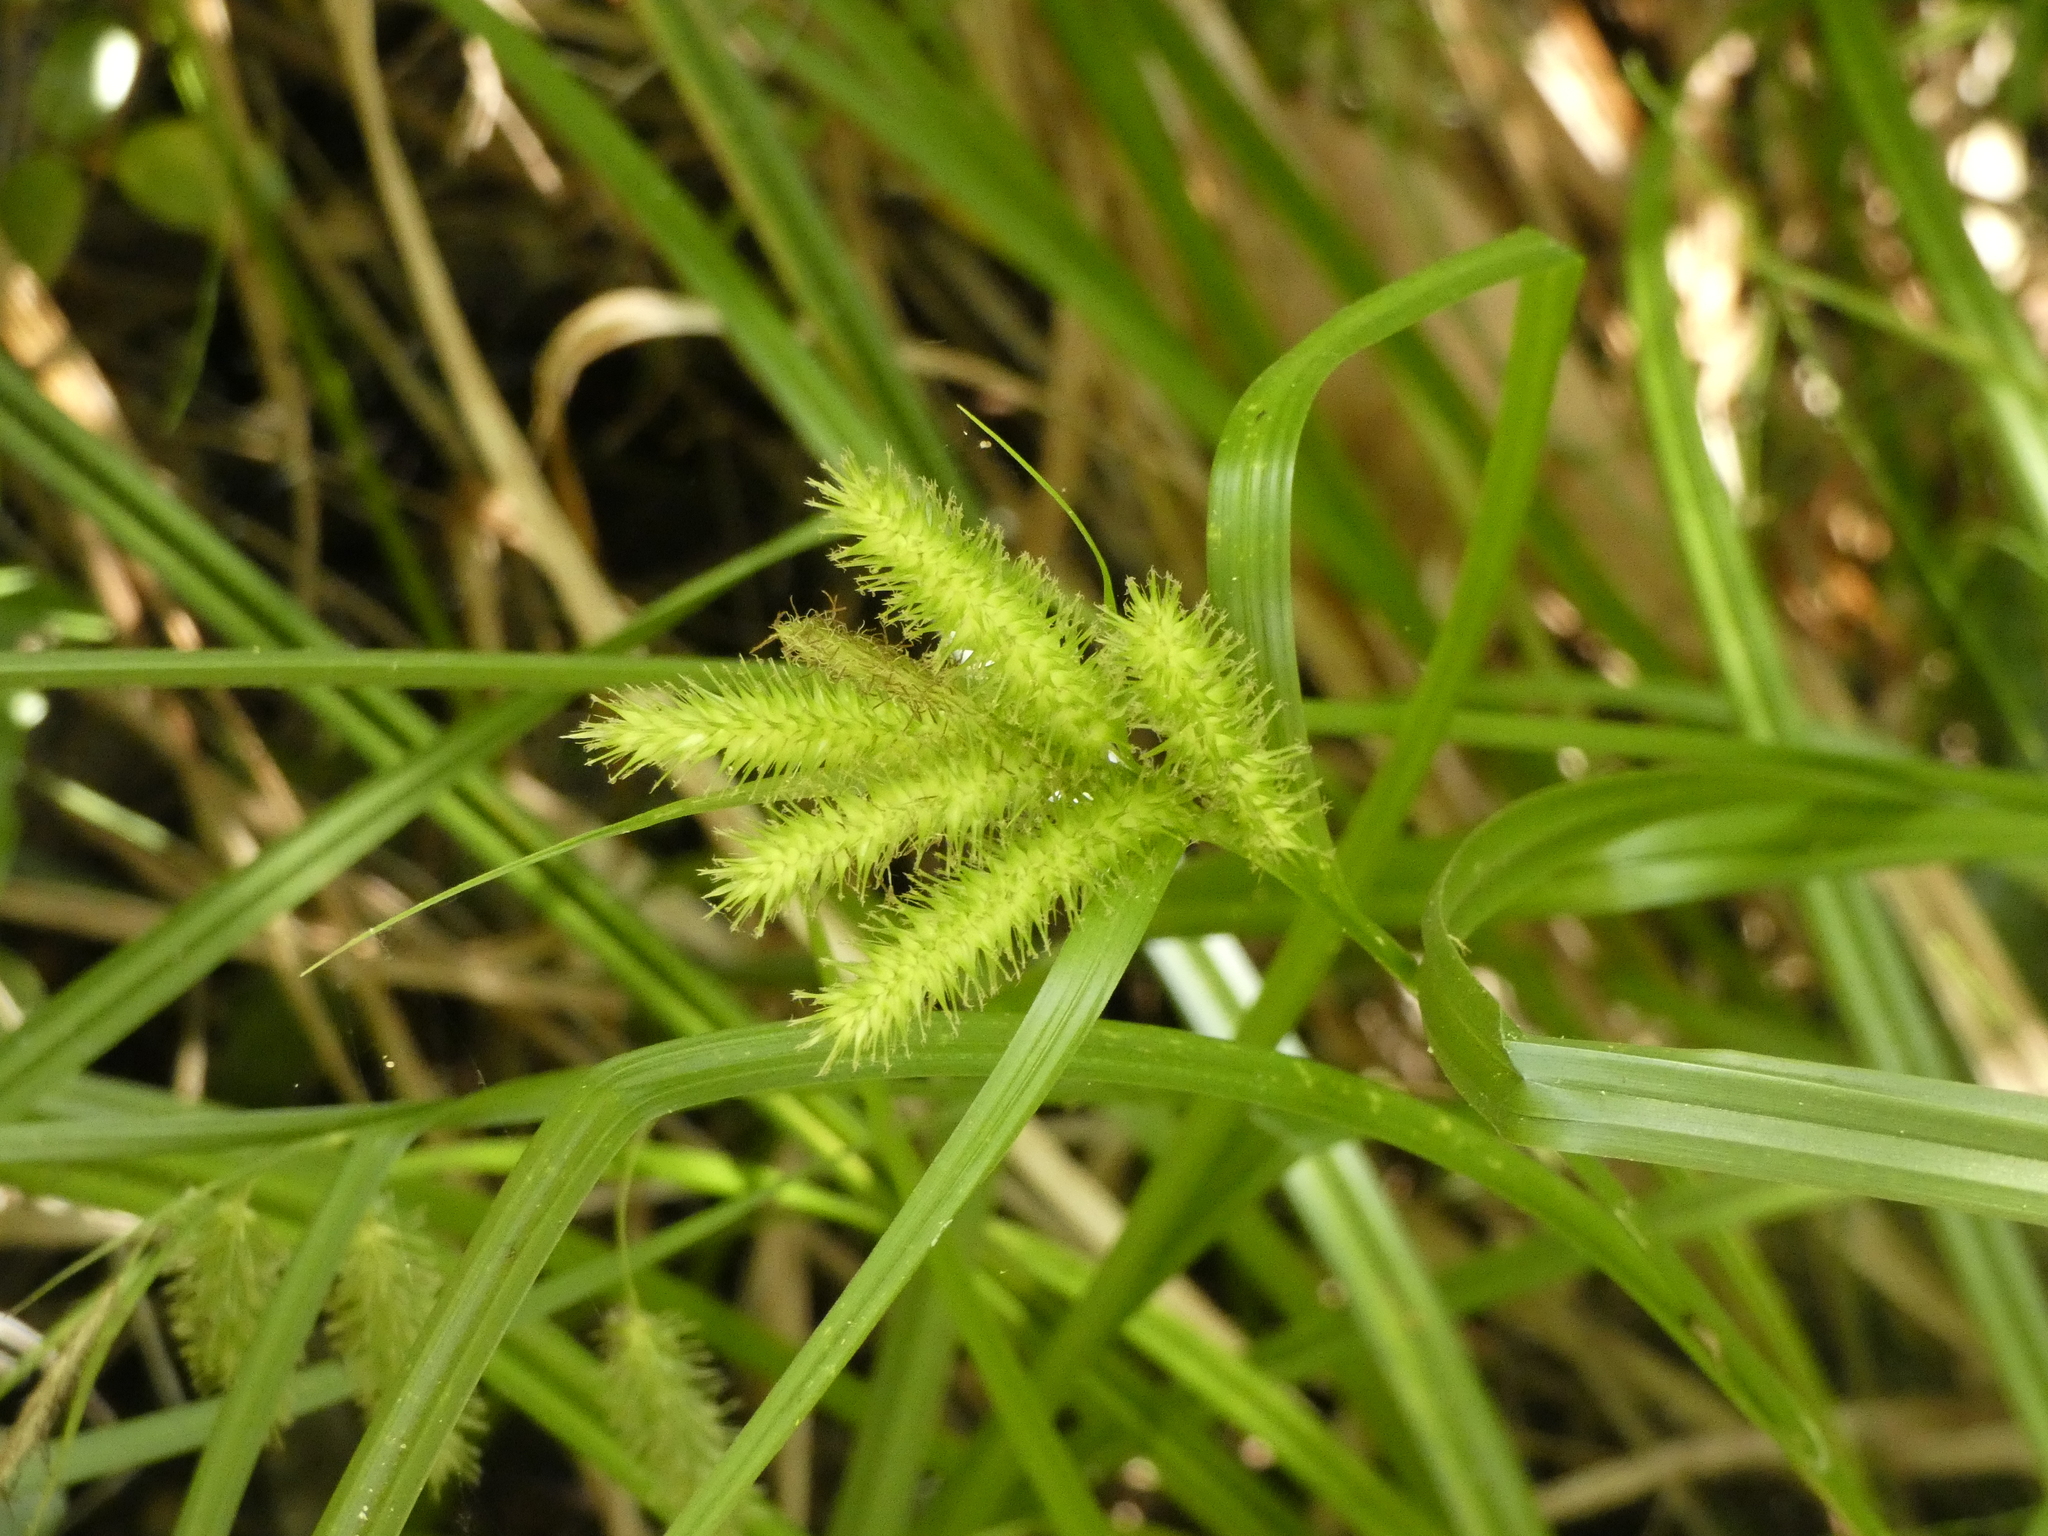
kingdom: Plantae
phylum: Tracheophyta
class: Liliopsida
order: Poales
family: Cyperaceae
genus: Carex
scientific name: Carex excelsa
